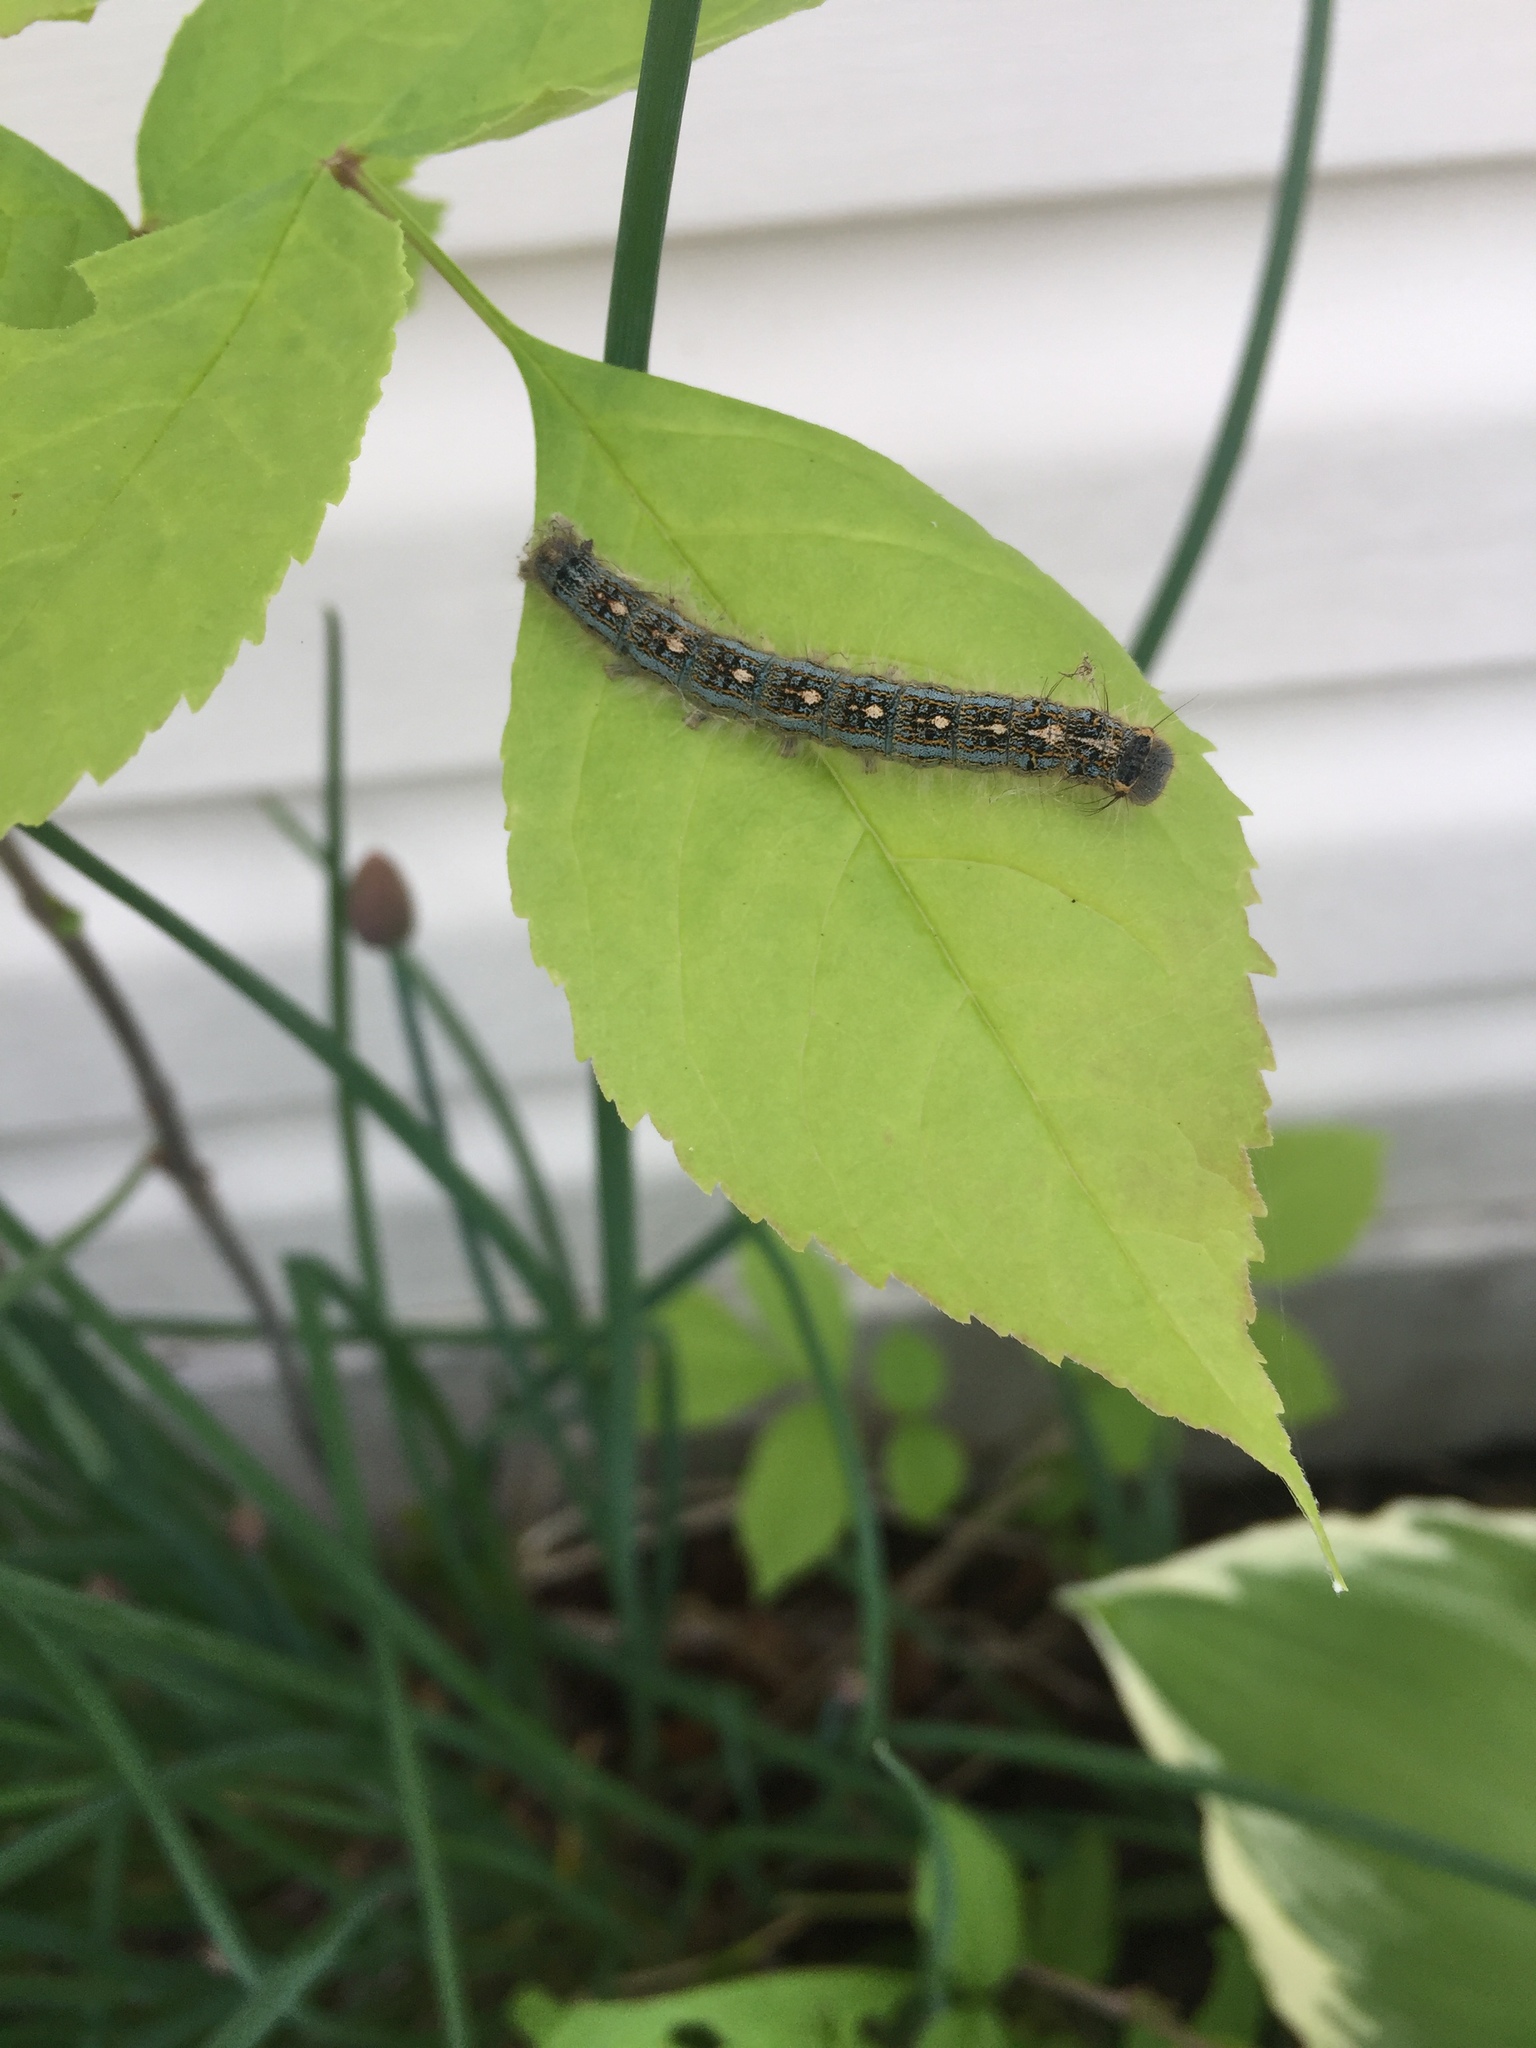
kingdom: Animalia
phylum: Arthropoda
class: Insecta
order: Lepidoptera
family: Lasiocampidae
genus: Malacosoma
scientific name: Malacosoma disstria
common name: Forest tent caterpillar
